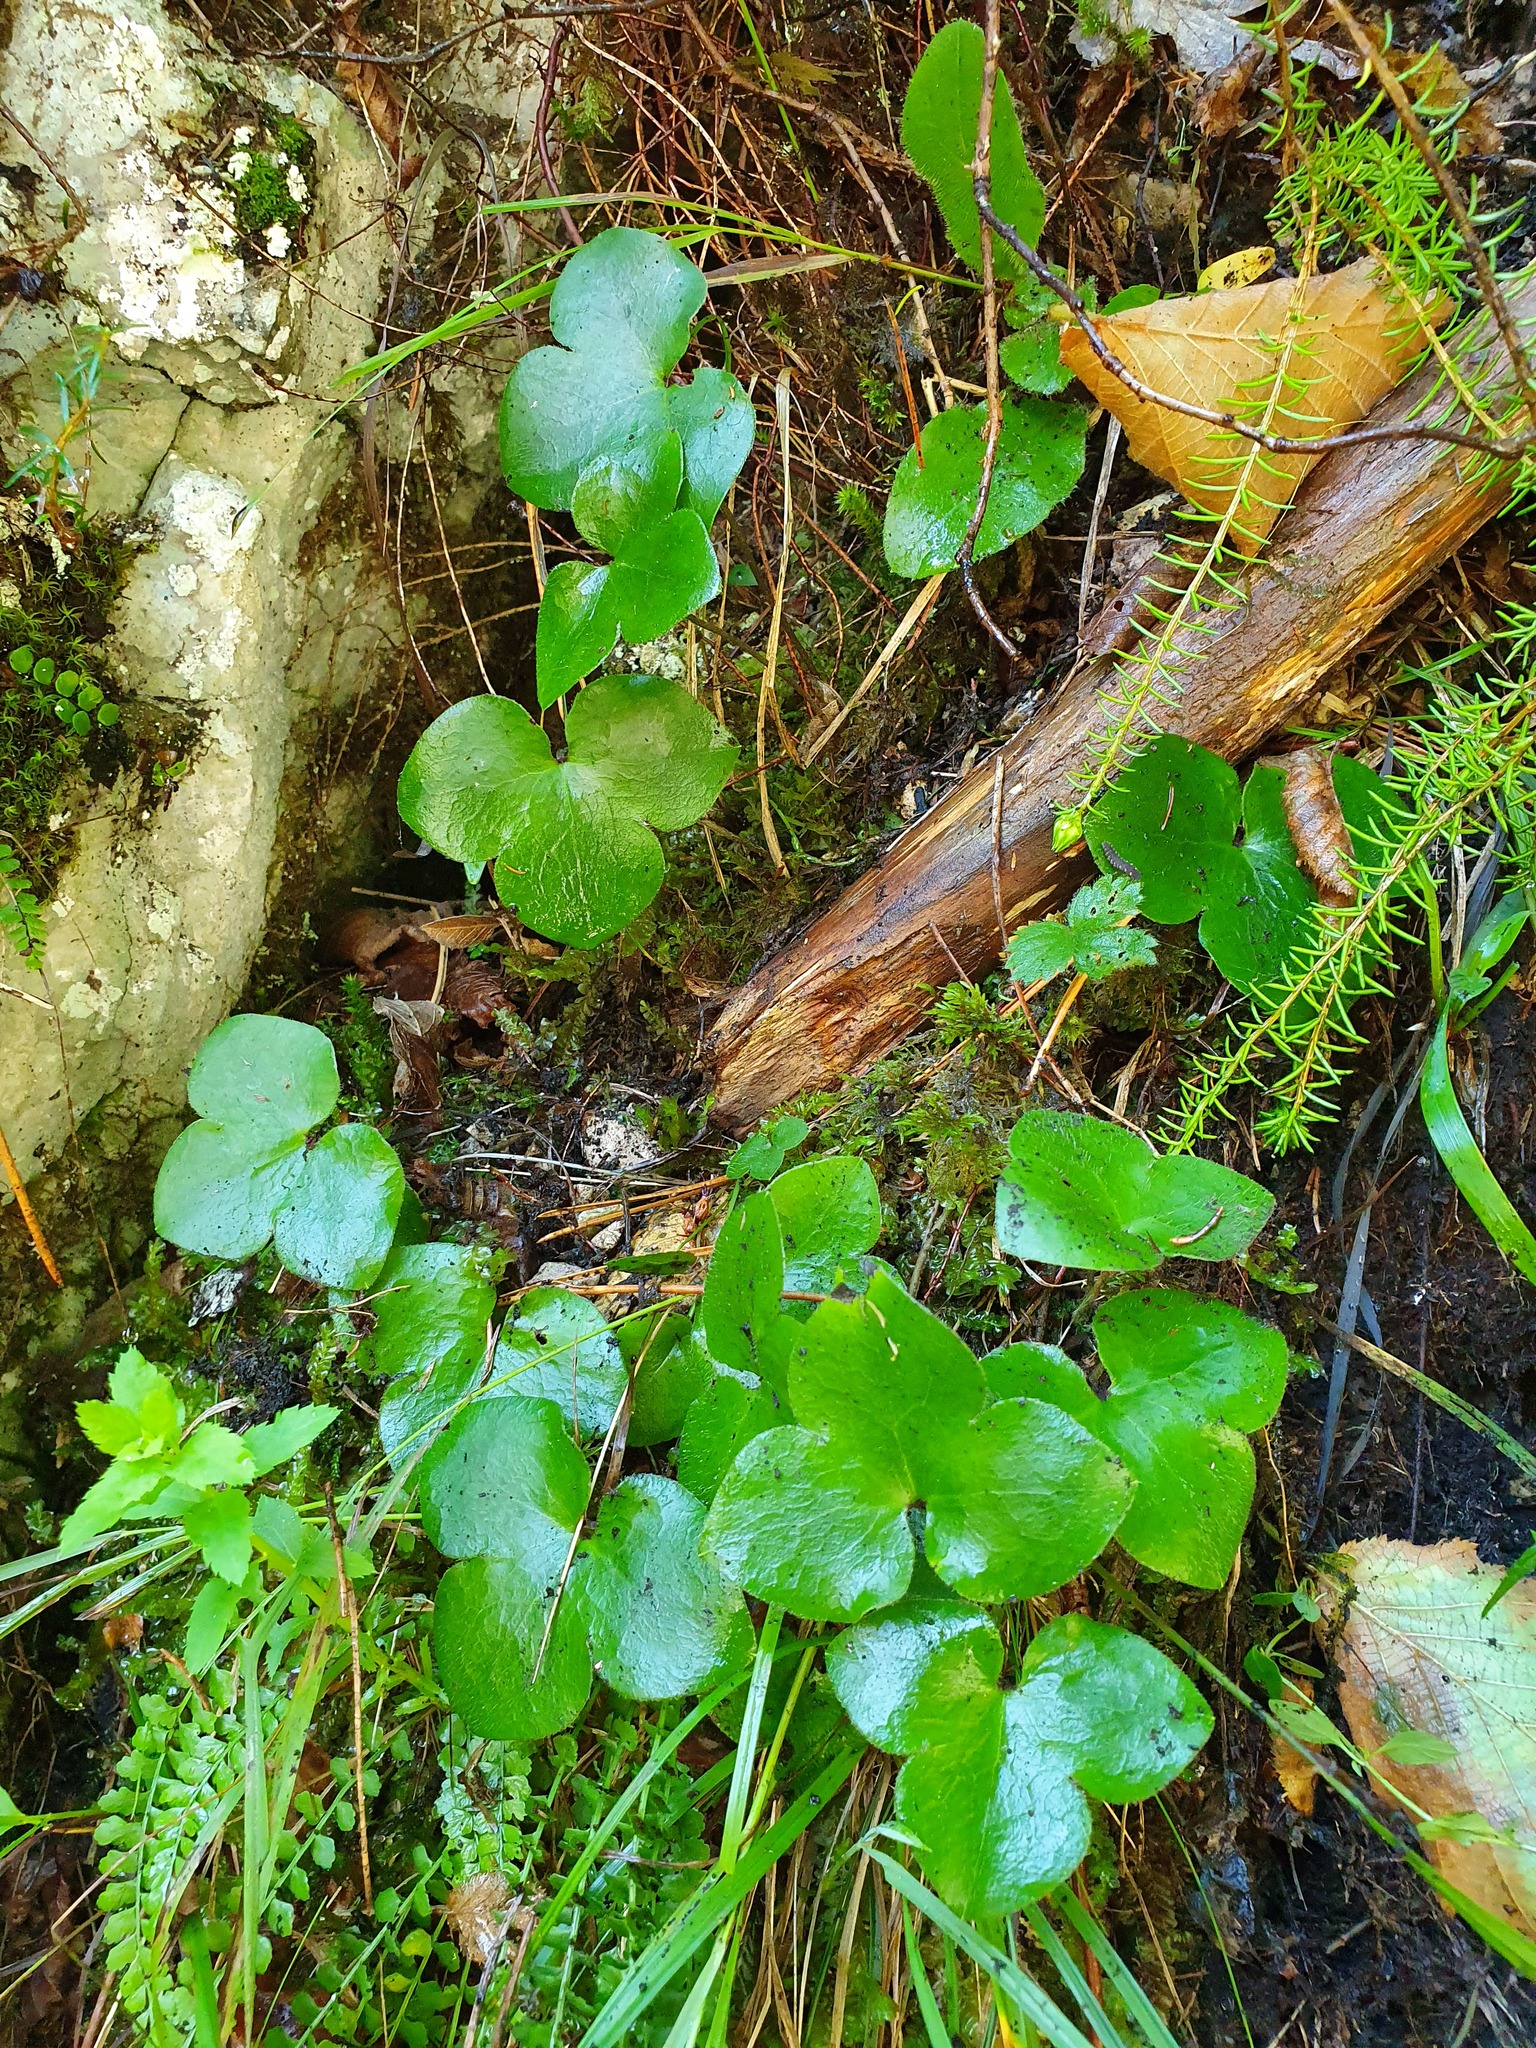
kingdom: Plantae
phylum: Tracheophyta
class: Magnoliopsida
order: Ranunculales
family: Ranunculaceae
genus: Hepatica
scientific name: Hepatica nobilis
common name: Liverleaf
